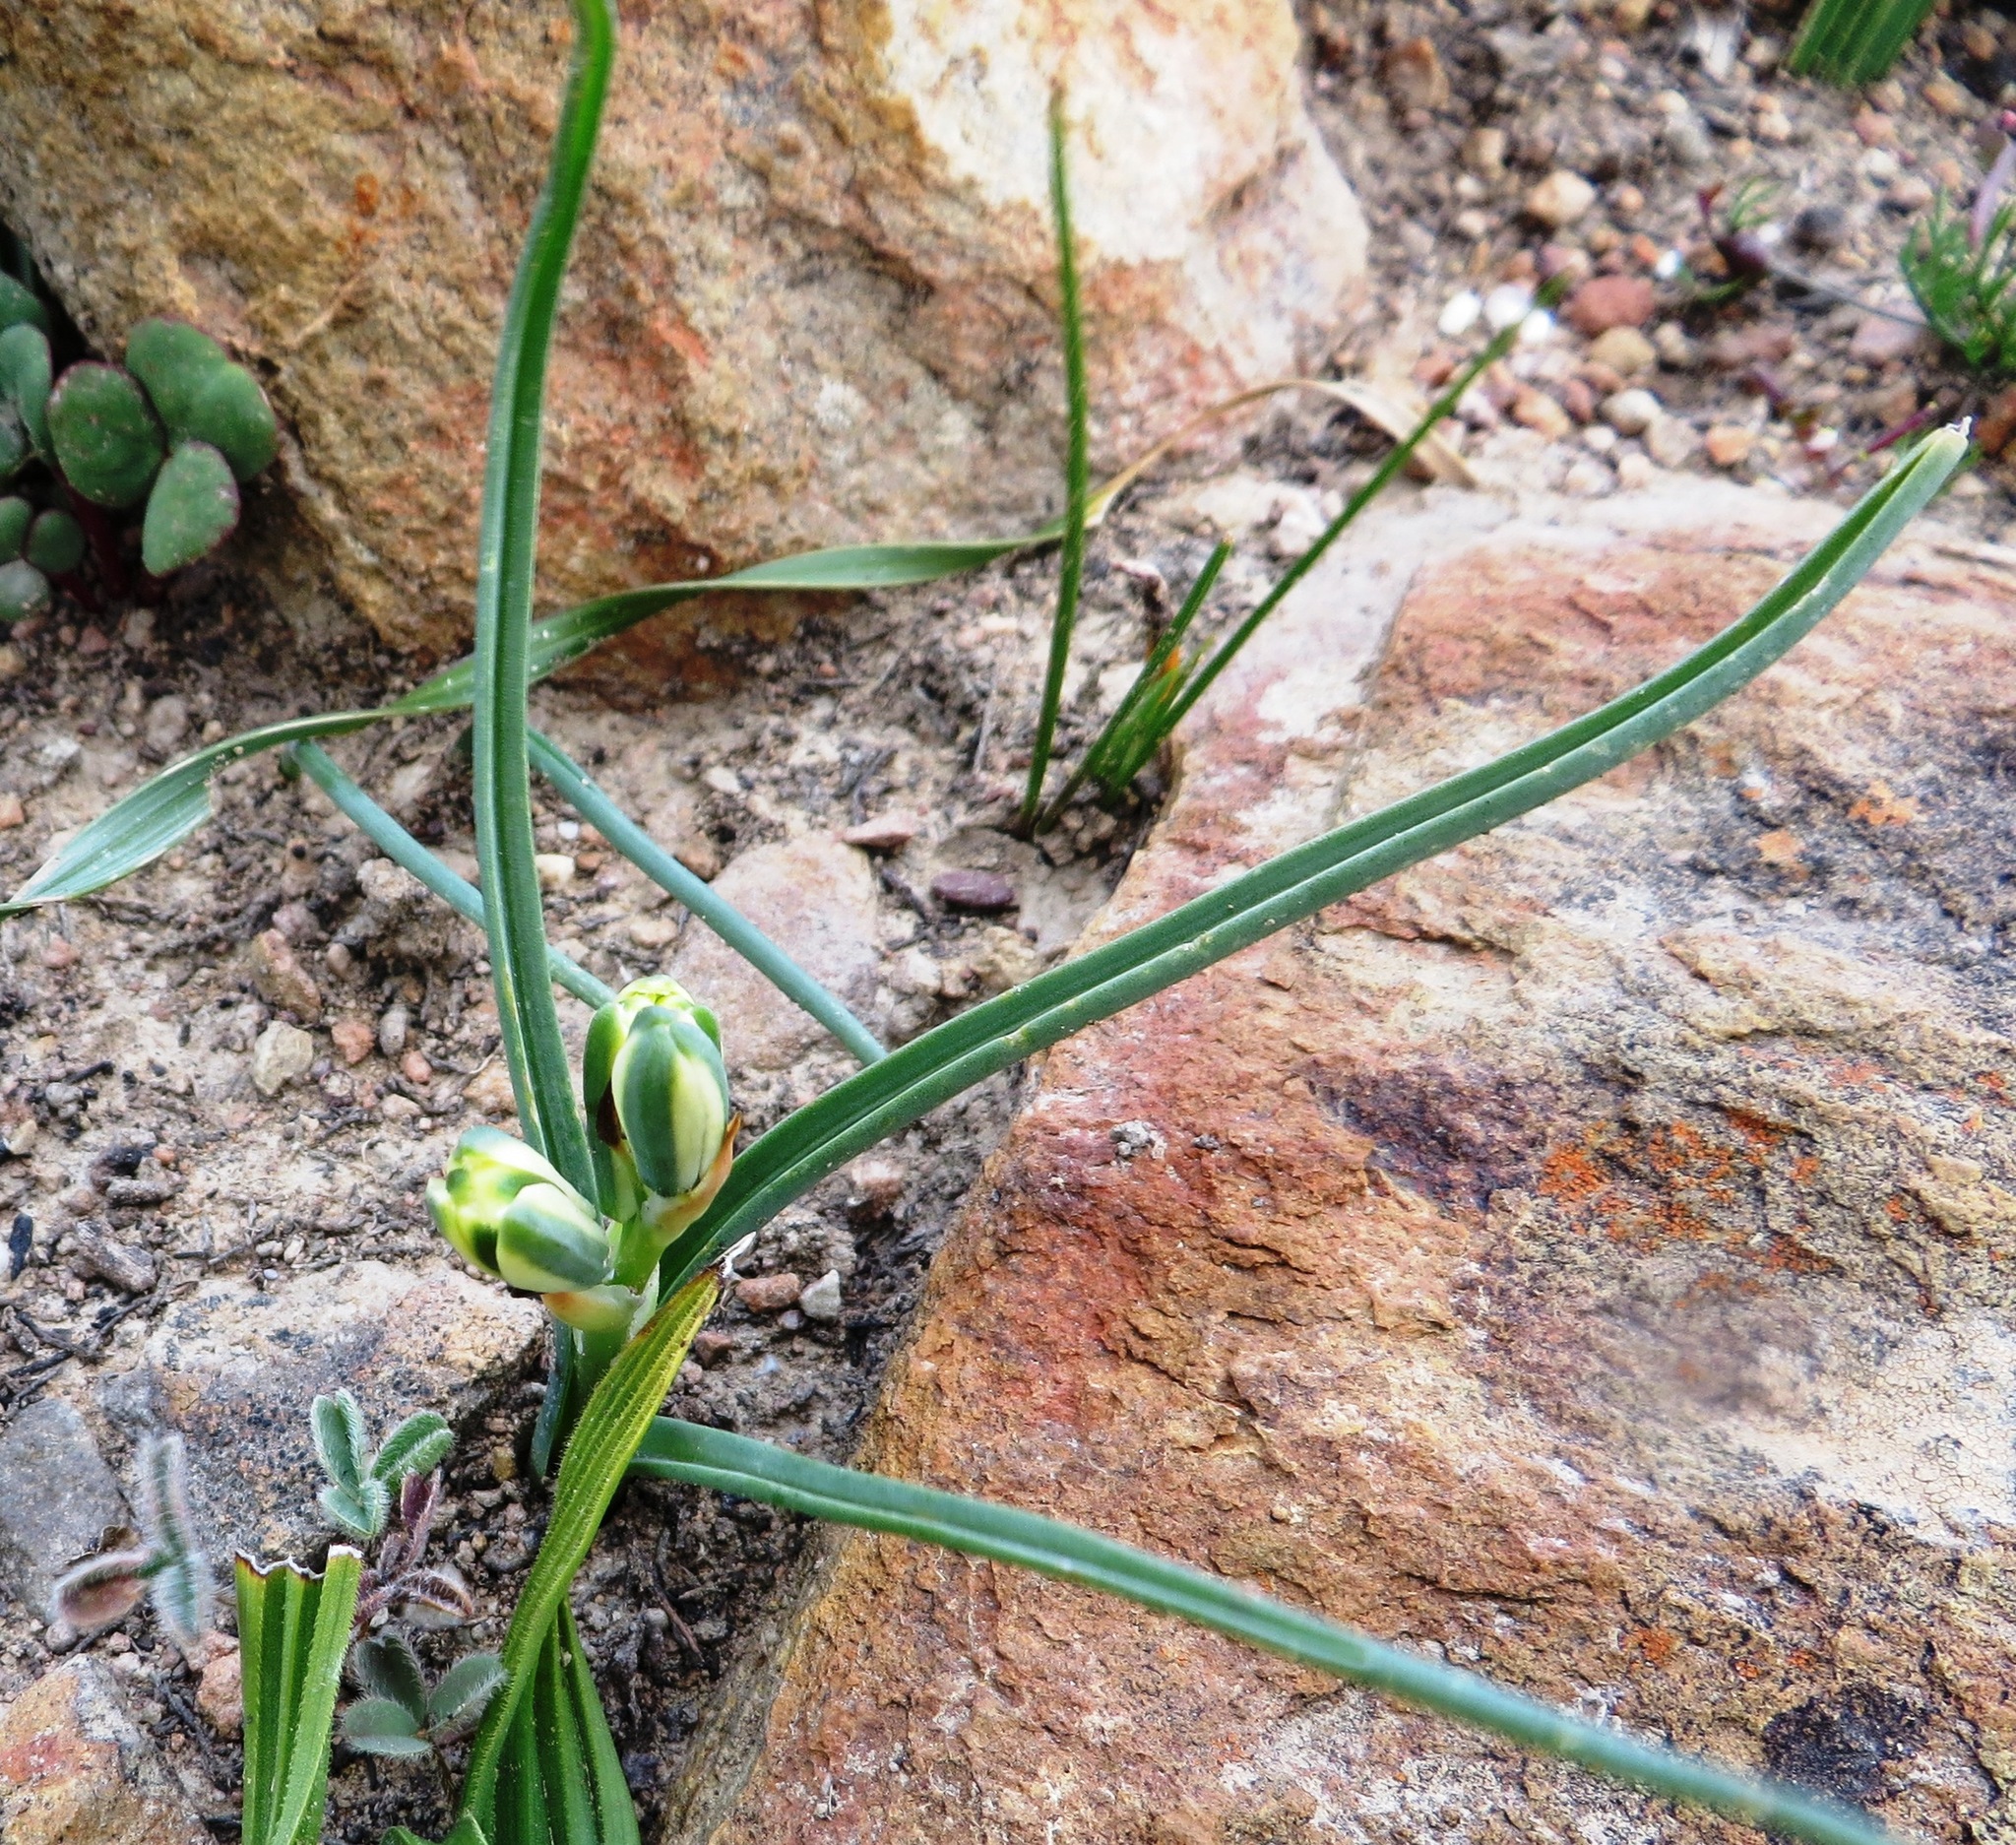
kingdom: Plantae
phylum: Tracheophyta
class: Liliopsida
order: Asparagales
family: Asparagaceae
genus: Albuca
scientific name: Albuca suaveolens
